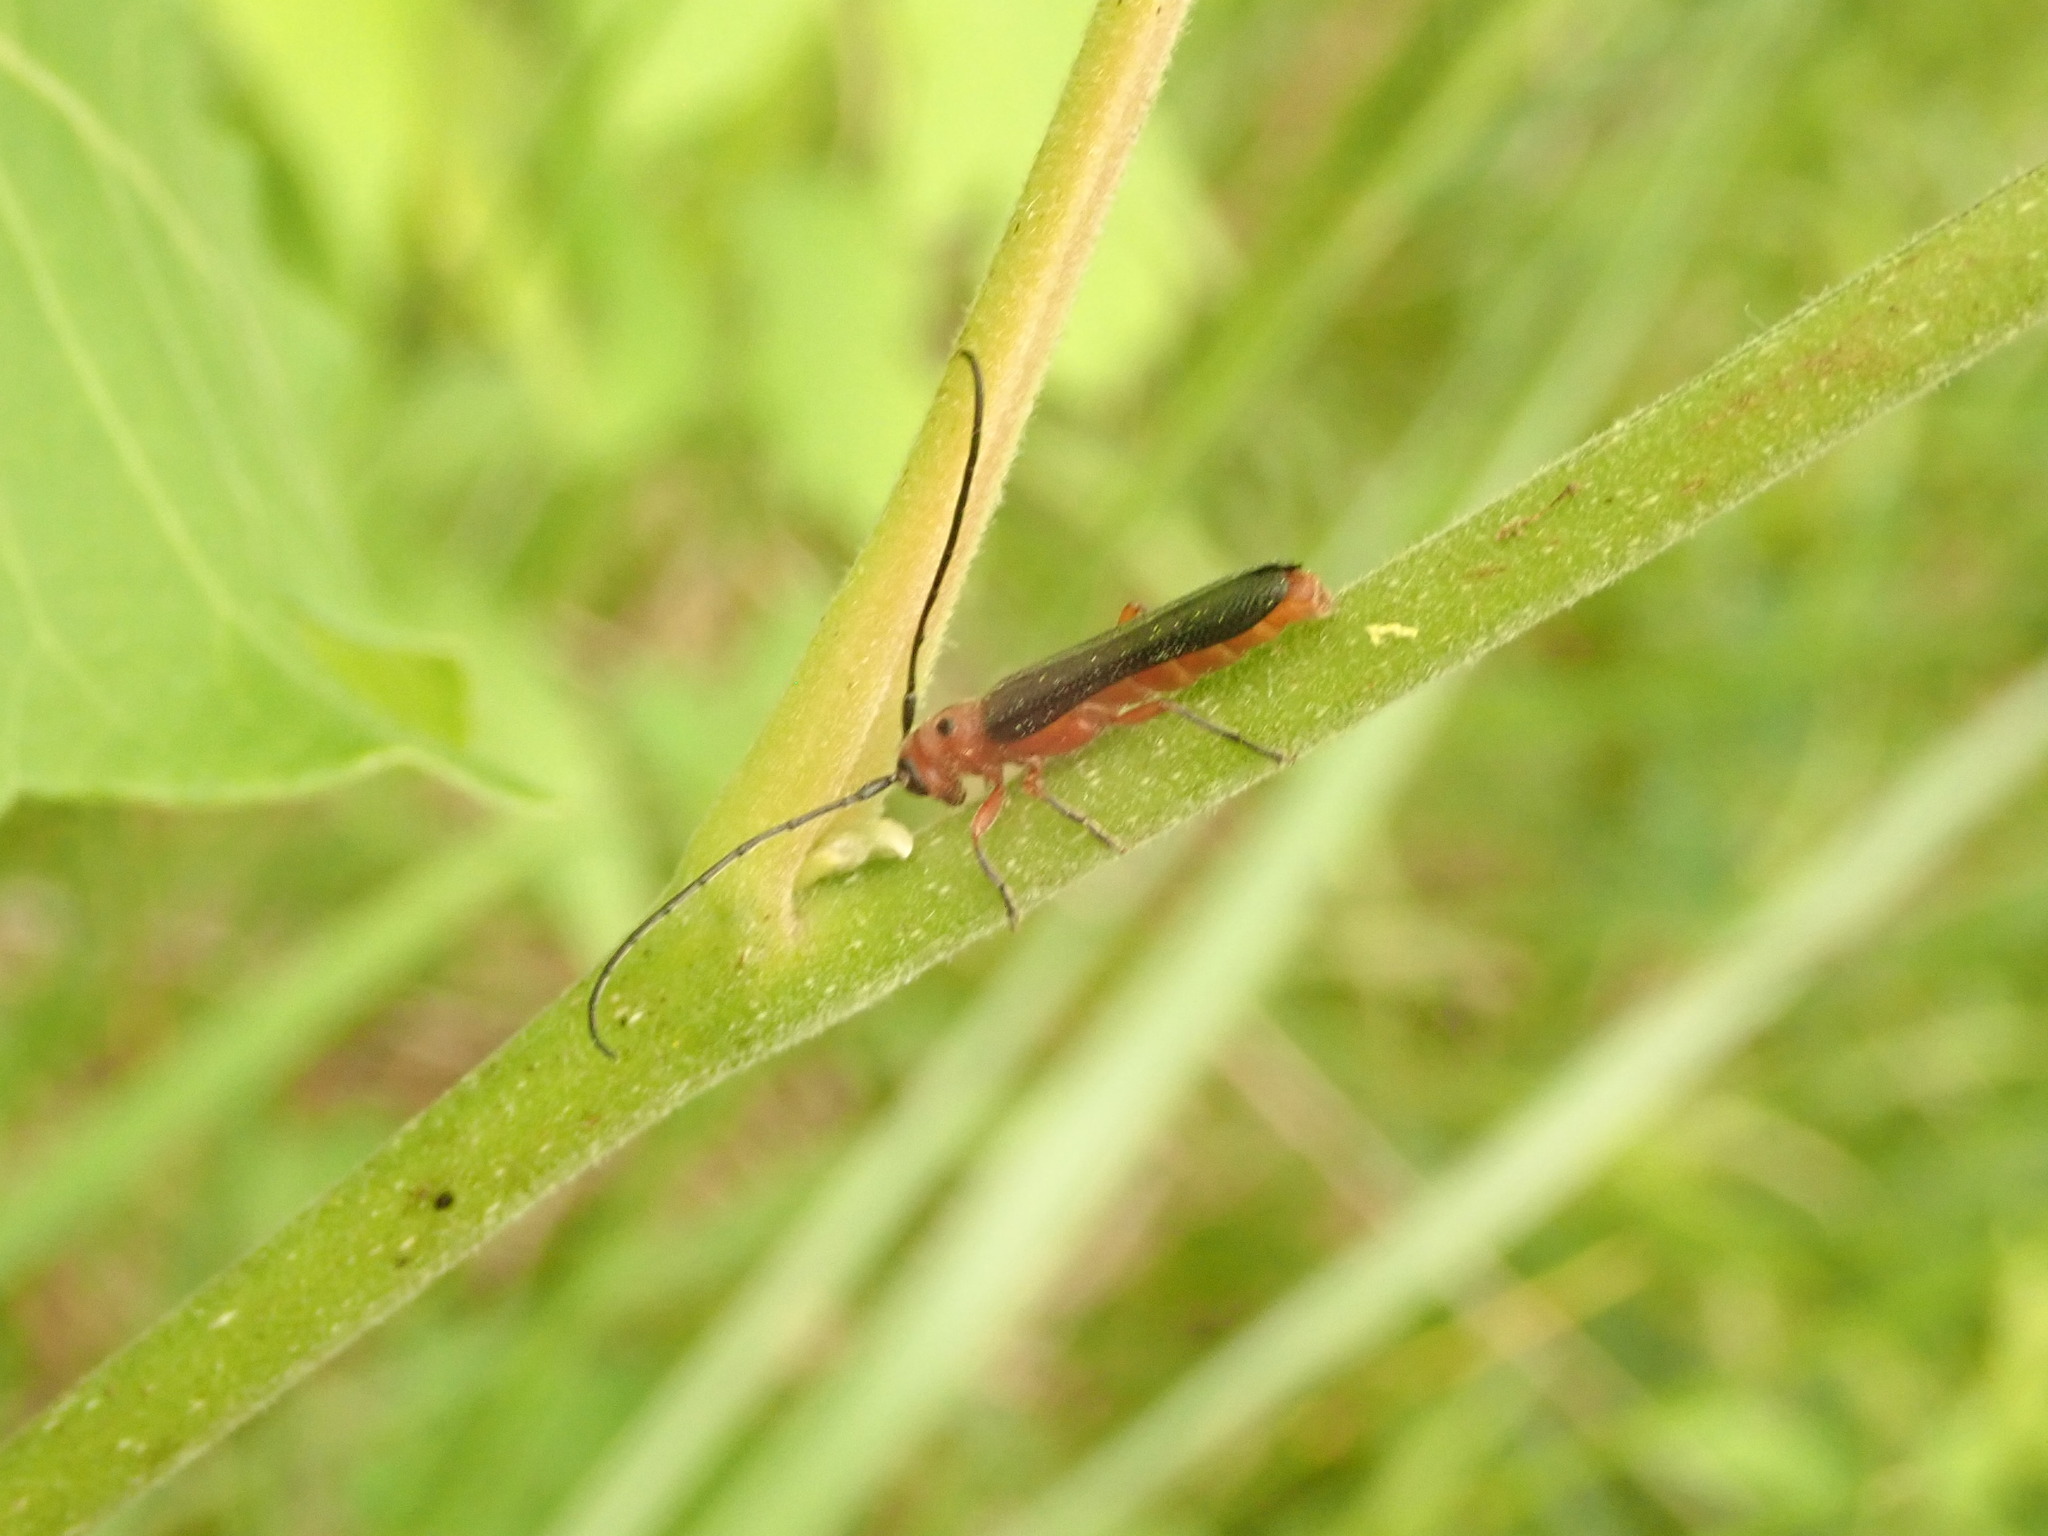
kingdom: Animalia
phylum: Arthropoda
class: Insecta
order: Coleoptera
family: Cerambycidae
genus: Oberea
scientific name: Oberea ulmicola
